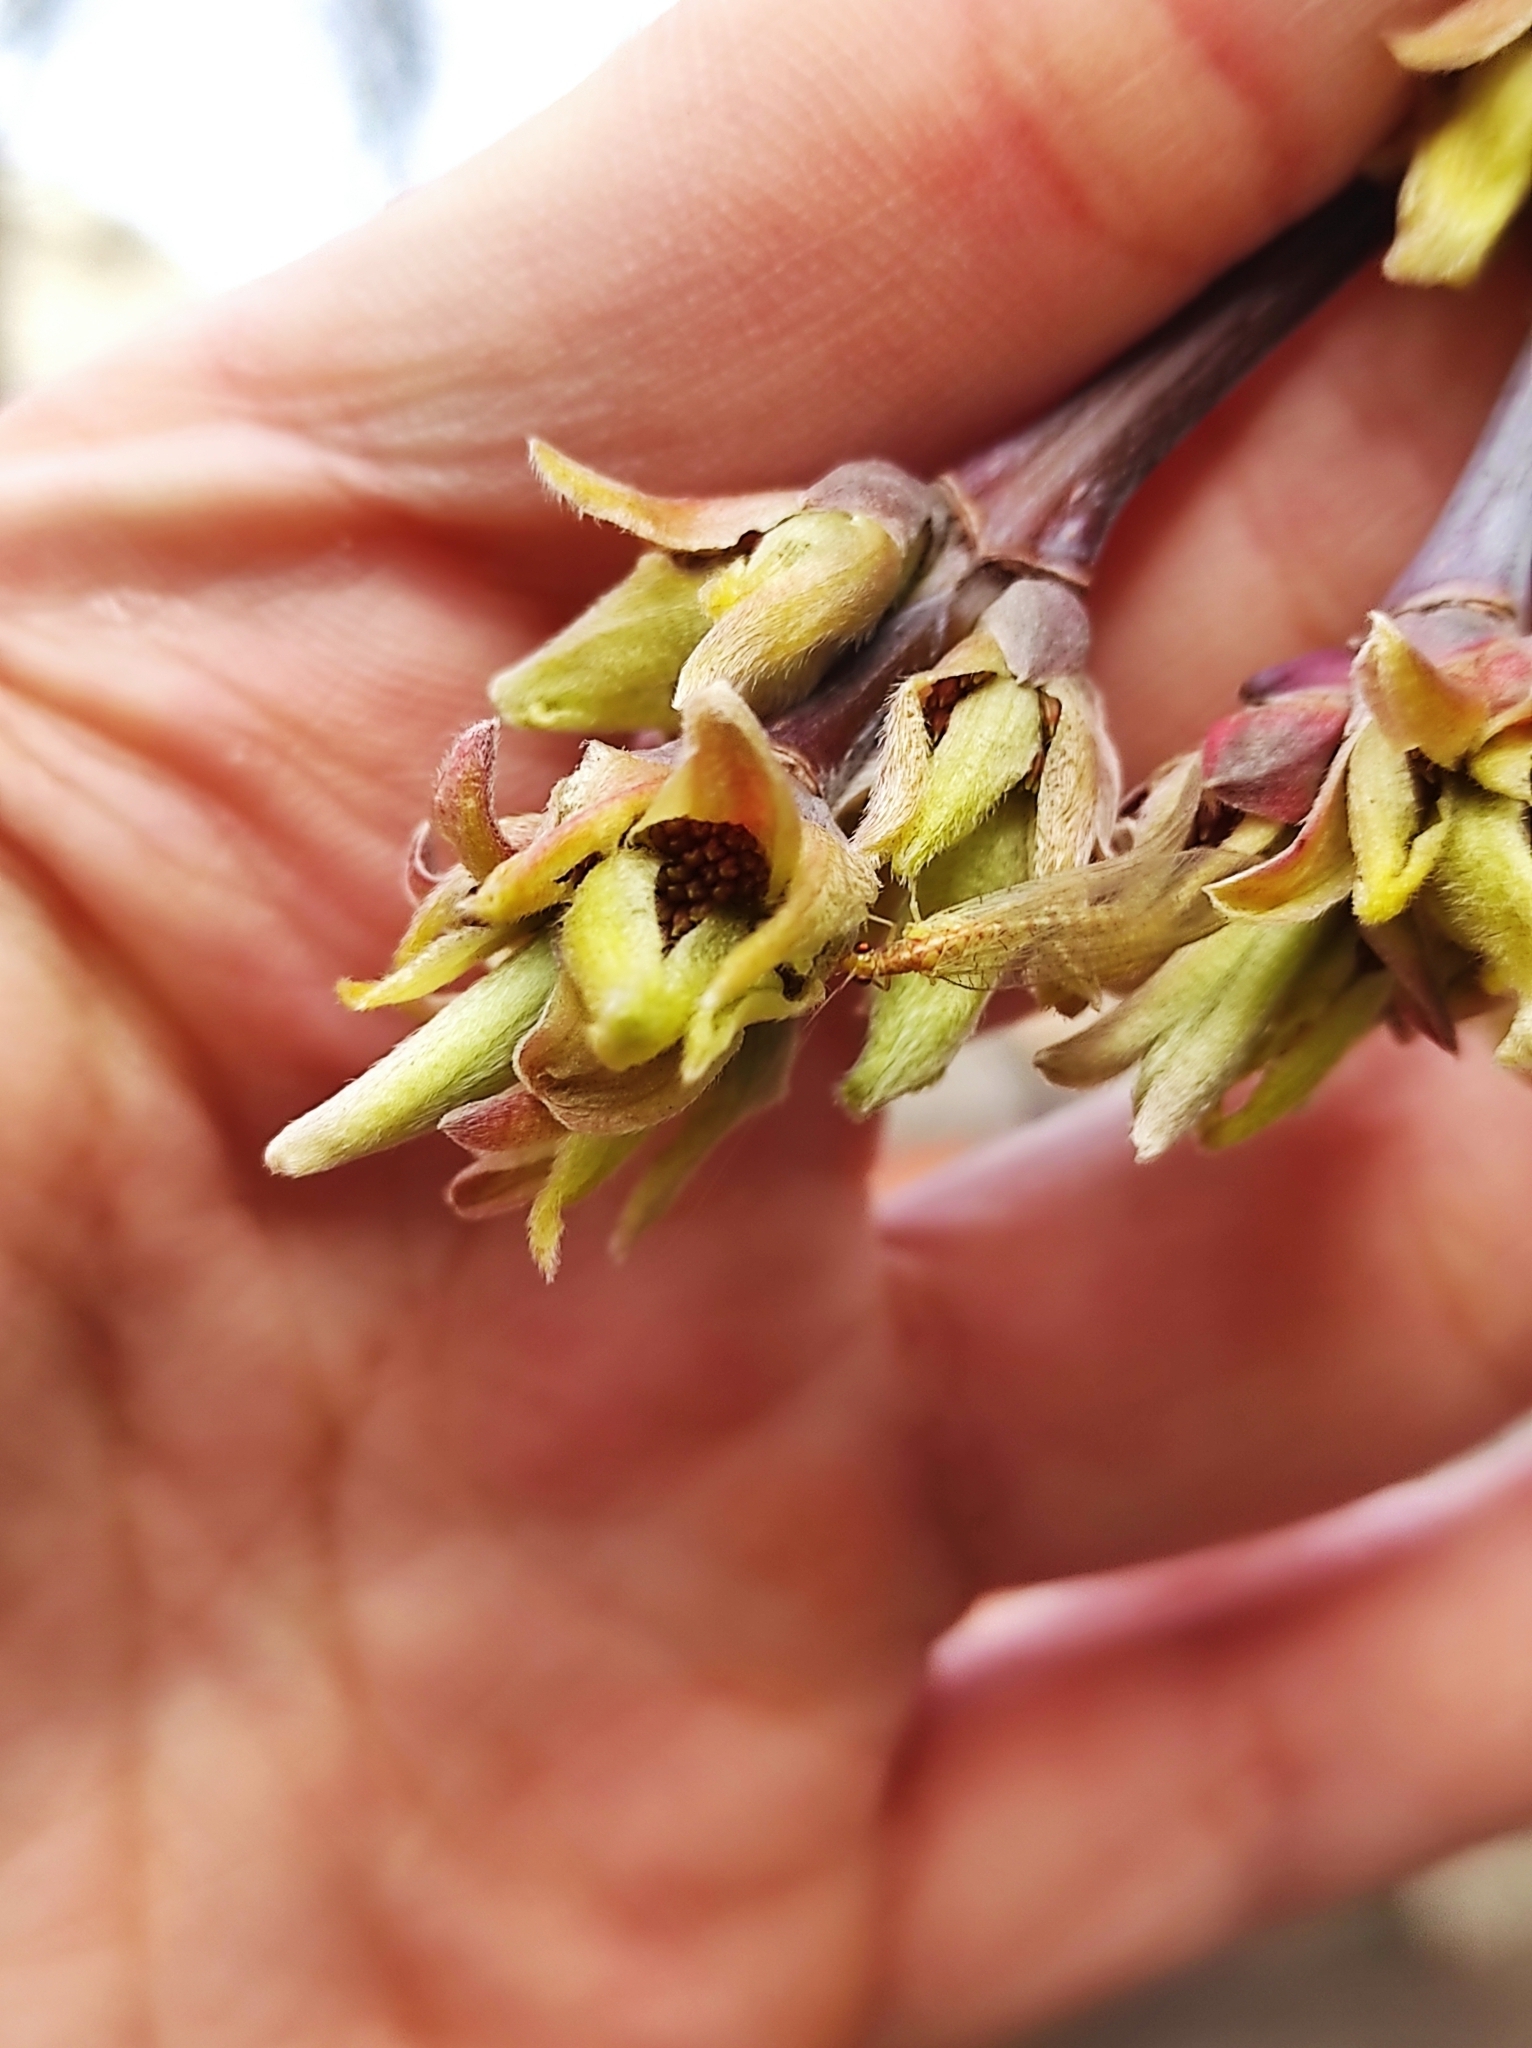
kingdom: Animalia
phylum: Arthropoda
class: Insecta
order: Neuroptera
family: Chrysopidae
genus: Chrysoperla
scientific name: Chrysoperla
